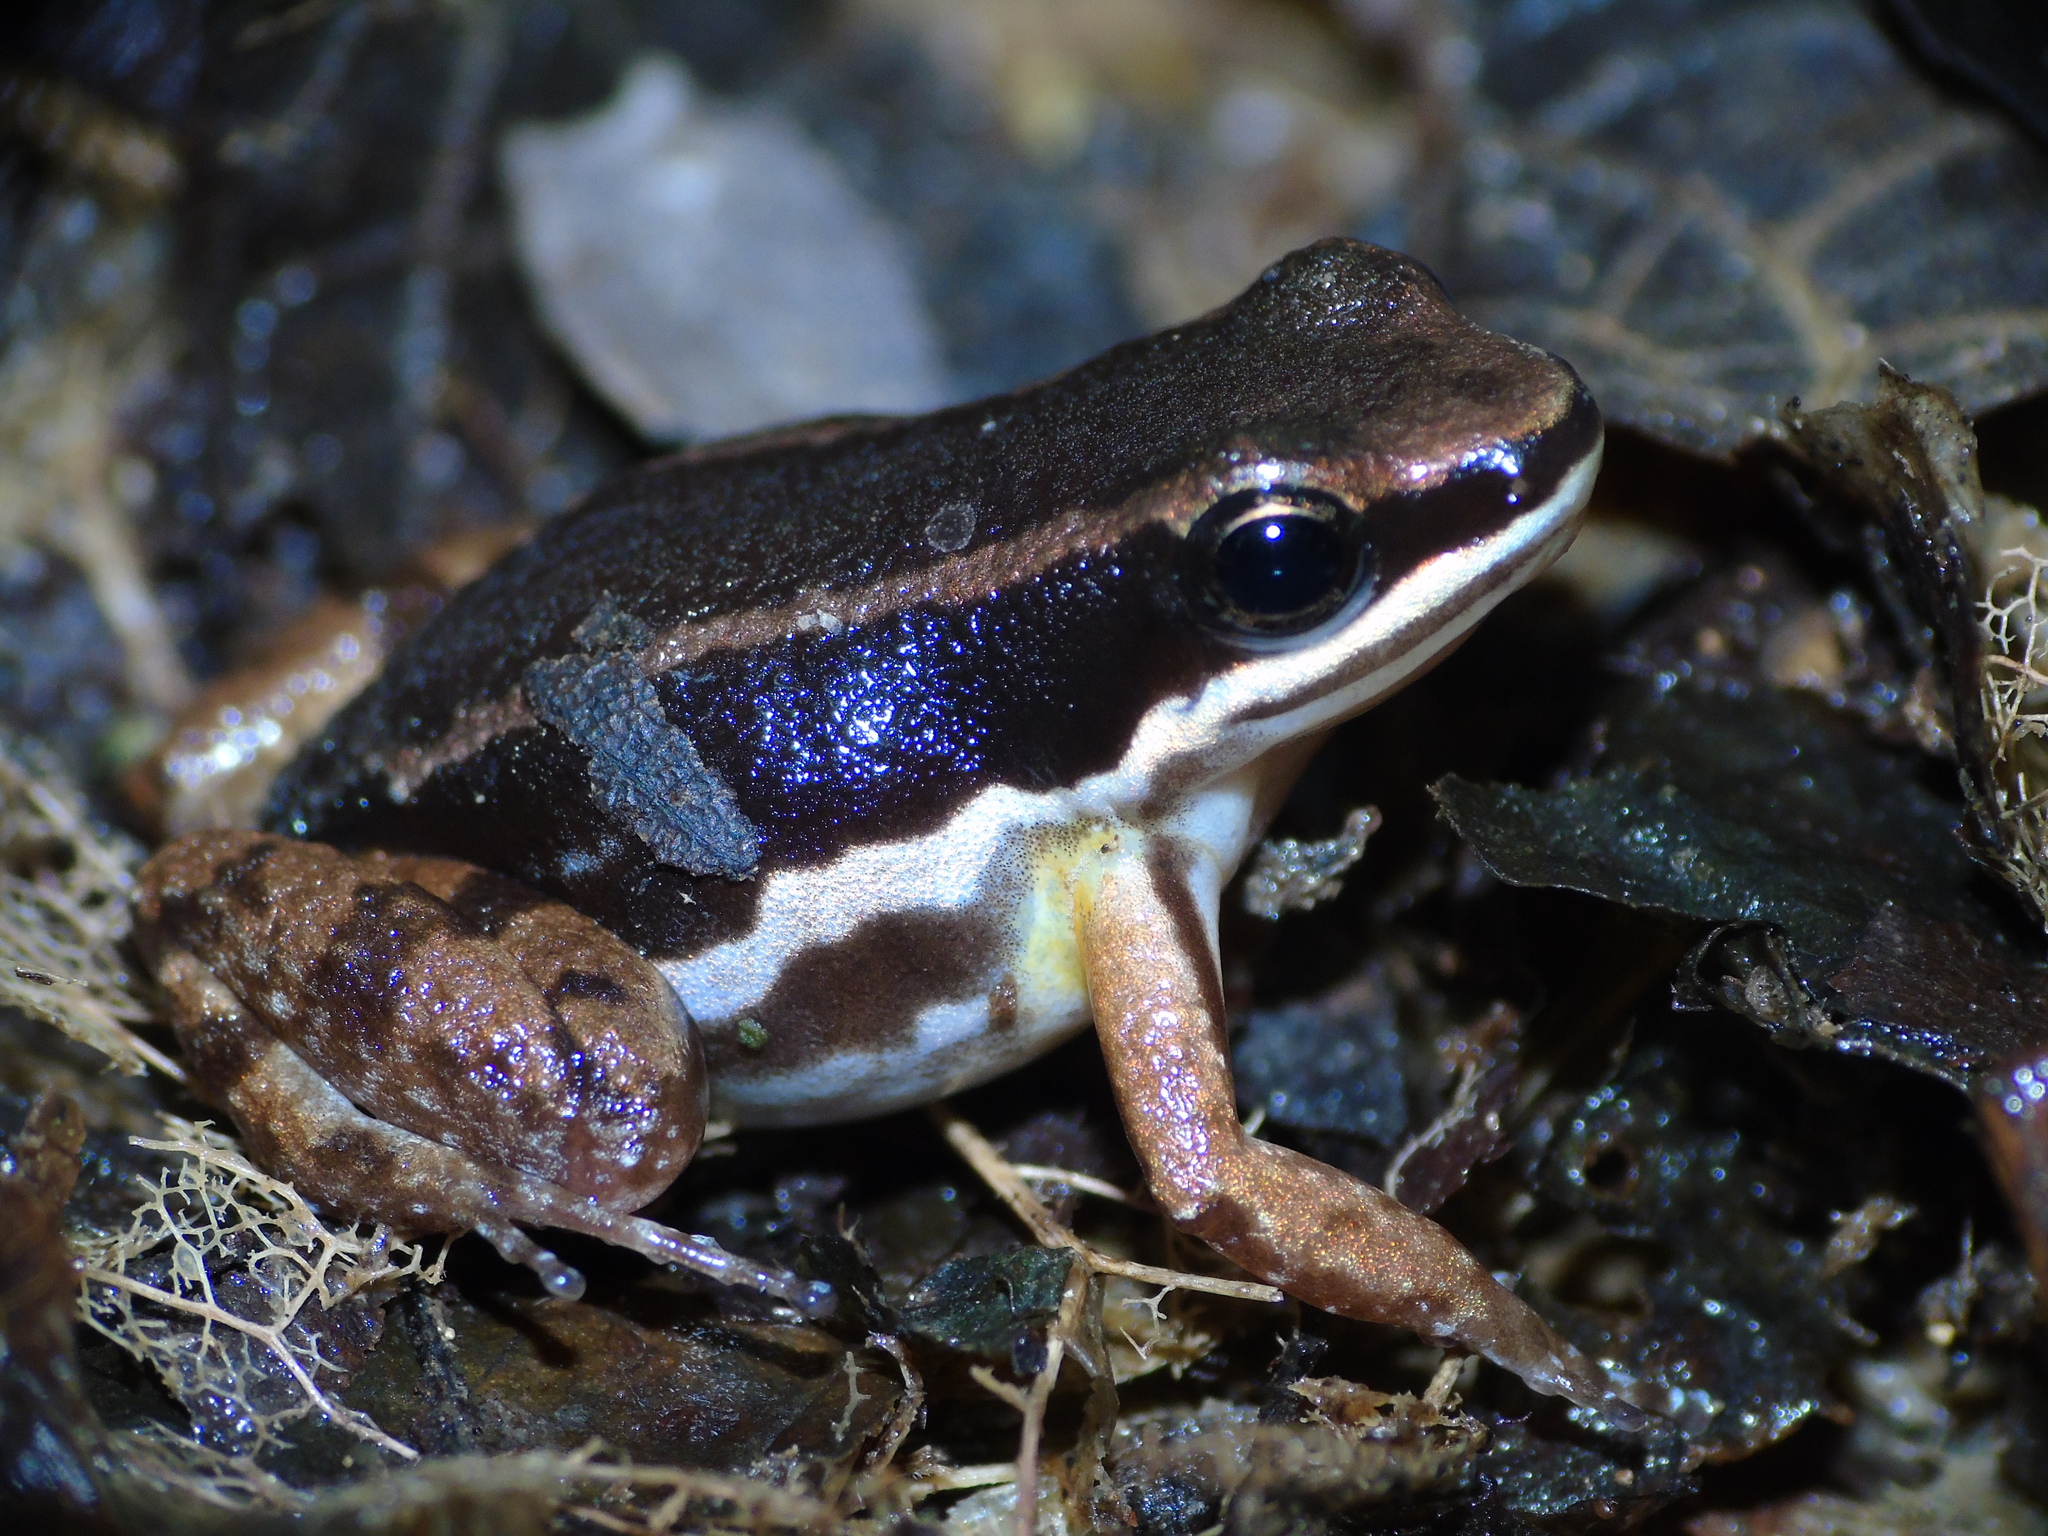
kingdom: Animalia
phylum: Chordata
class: Amphibia
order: Anura
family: Aromobatidae
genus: Allobates
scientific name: Allobates talamancae
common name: Talamanca rocket frog
